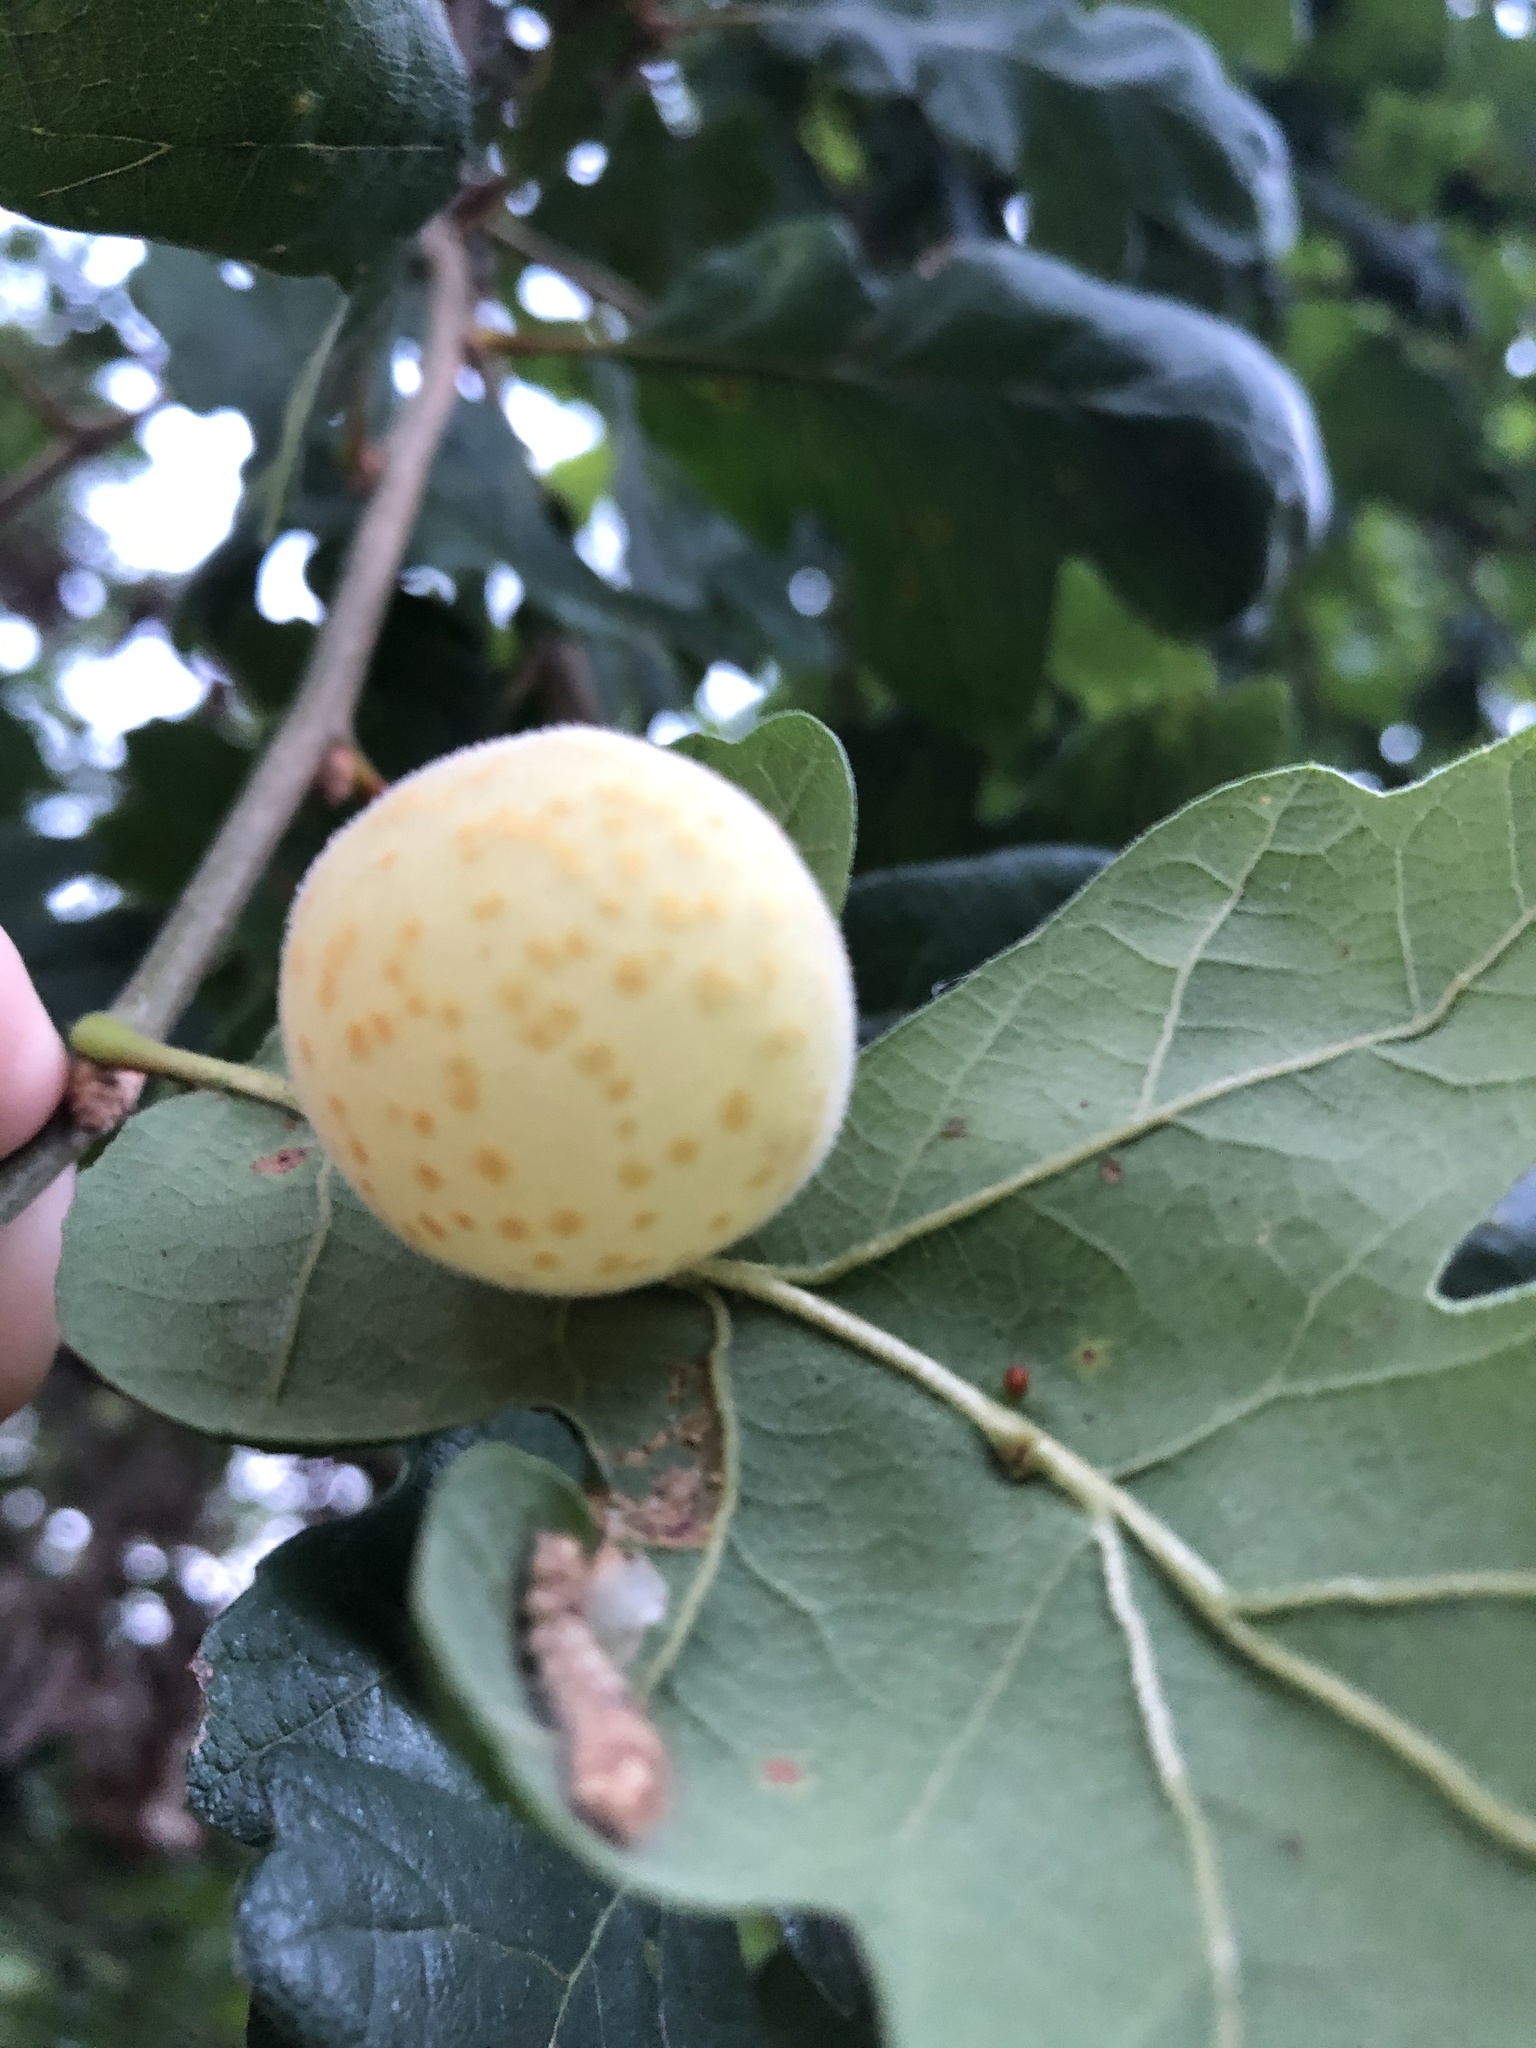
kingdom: Animalia
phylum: Arthropoda
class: Insecta
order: Hymenoptera
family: Cynipidae
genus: Cynips
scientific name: Cynips
